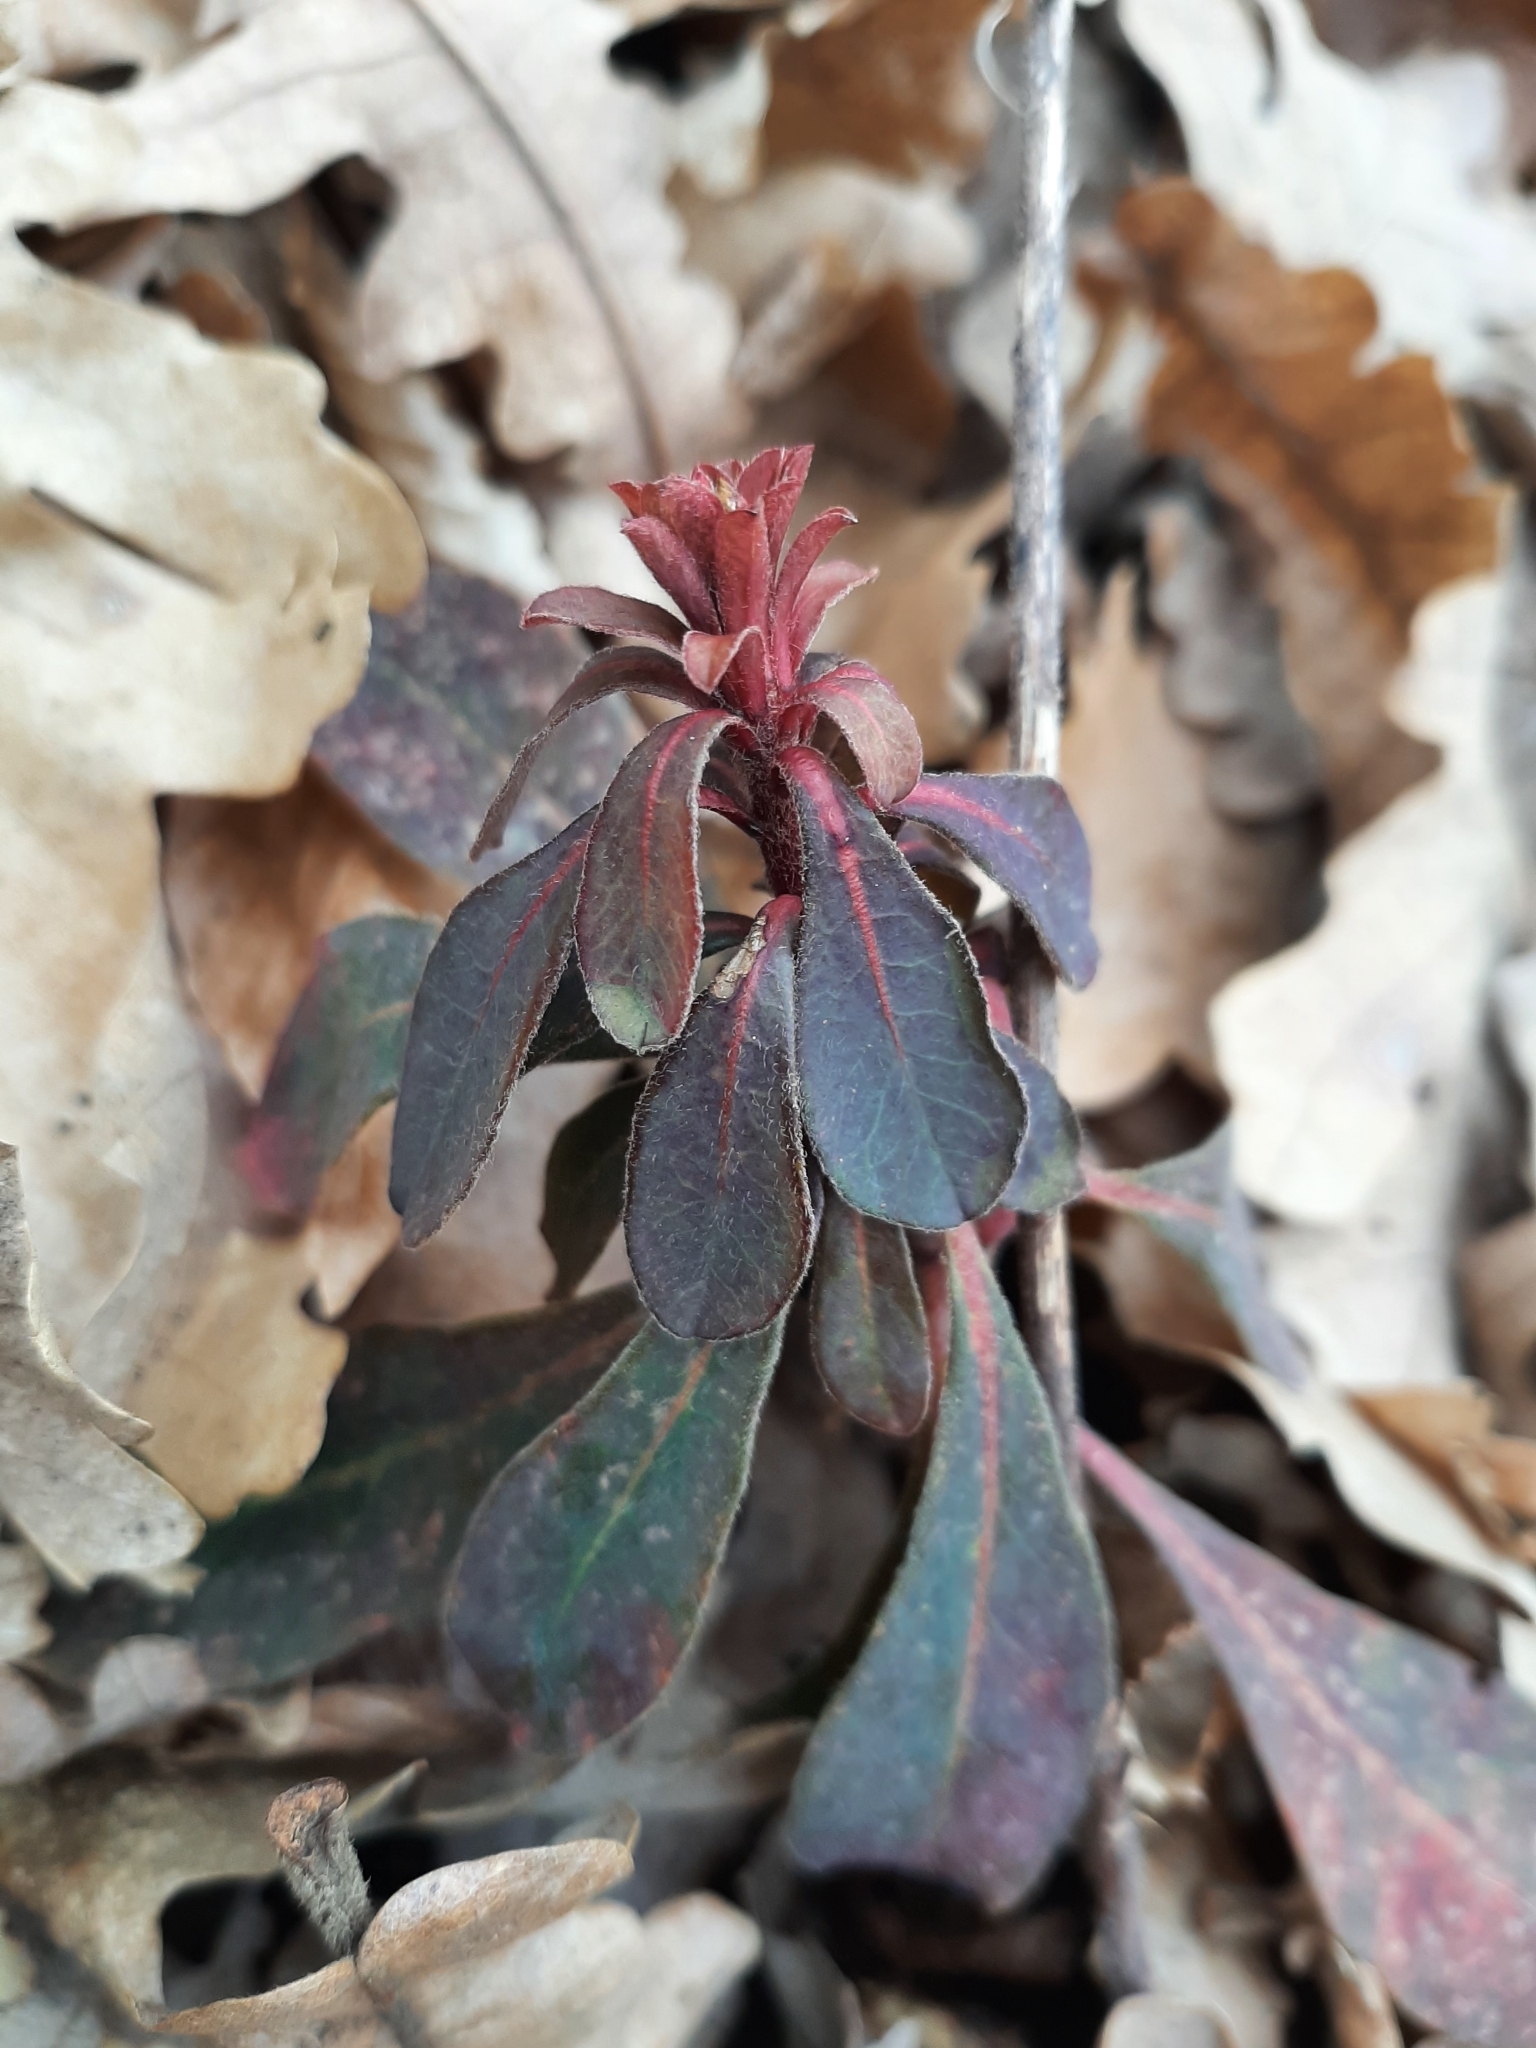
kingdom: Plantae
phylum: Tracheophyta
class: Magnoliopsida
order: Malpighiales
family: Euphorbiaceae
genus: Euphorbia
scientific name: Euphorbia amygdaloides
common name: Wood spurge
